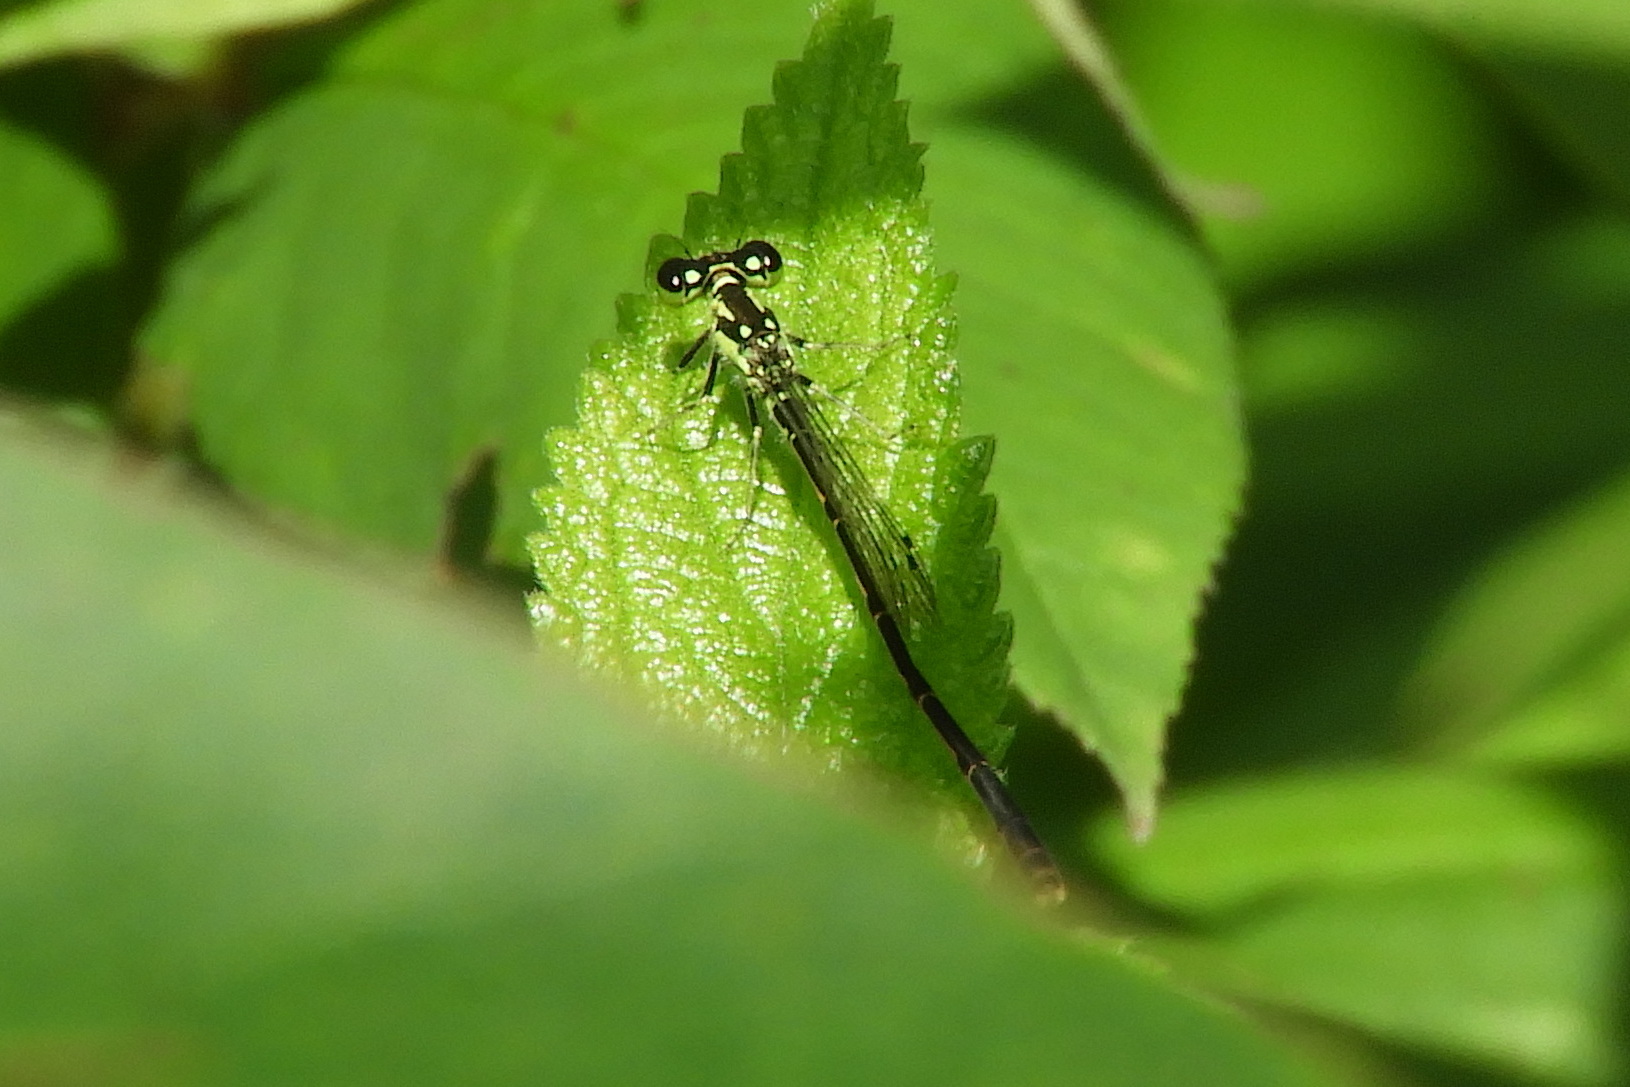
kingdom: Animalia
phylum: Arthropoda
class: Insecta
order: Odonata
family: Coenagrionidae
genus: Ischnura
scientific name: Ischnura posita
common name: Fragile forktail
